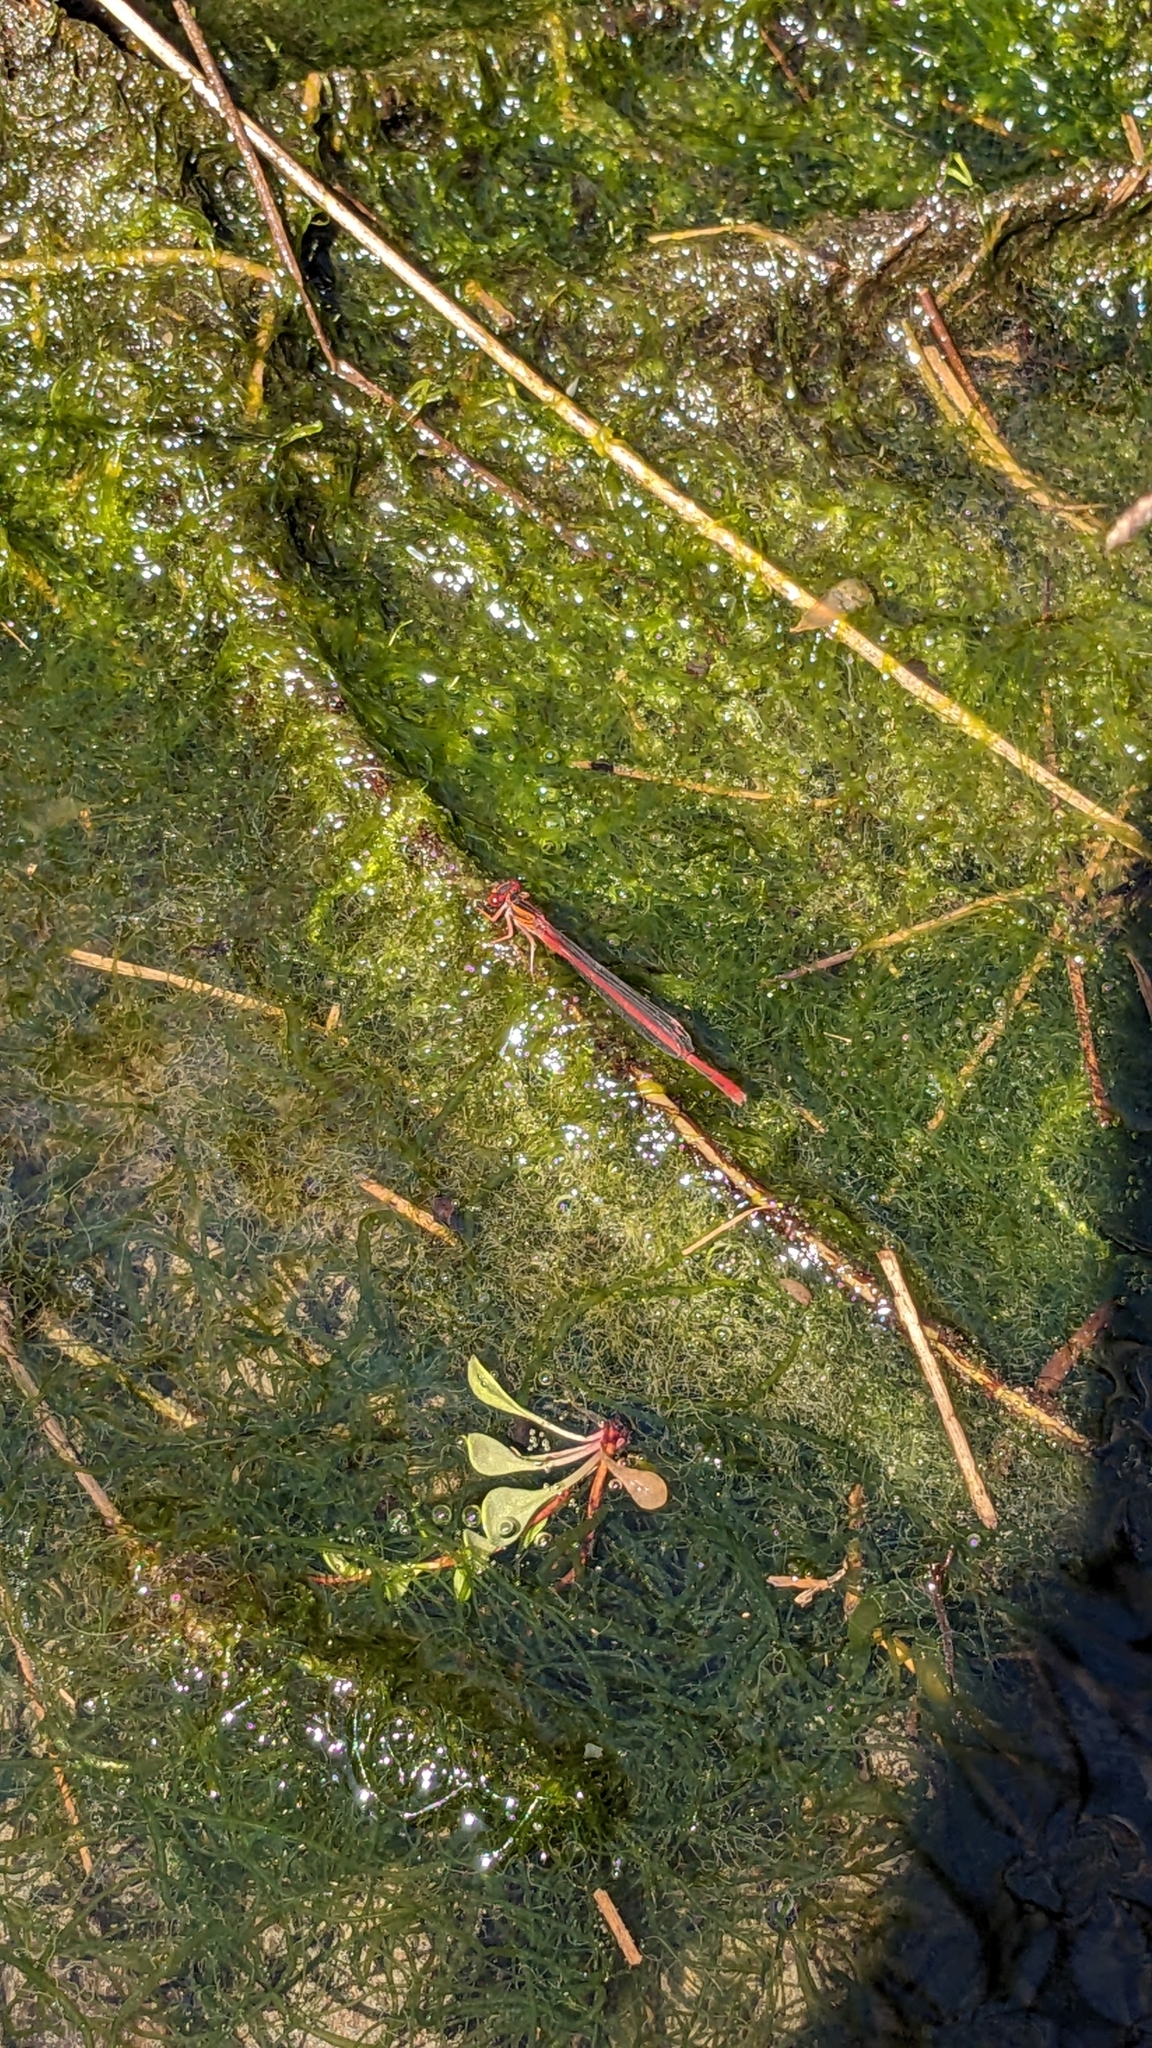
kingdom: Animalia
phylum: Arthropoda
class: Insecta
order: Odonata
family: Coenagrionidae
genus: Xanthocnemis
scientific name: Xanthocnemis zealandica
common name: Common redcoat damselfly
